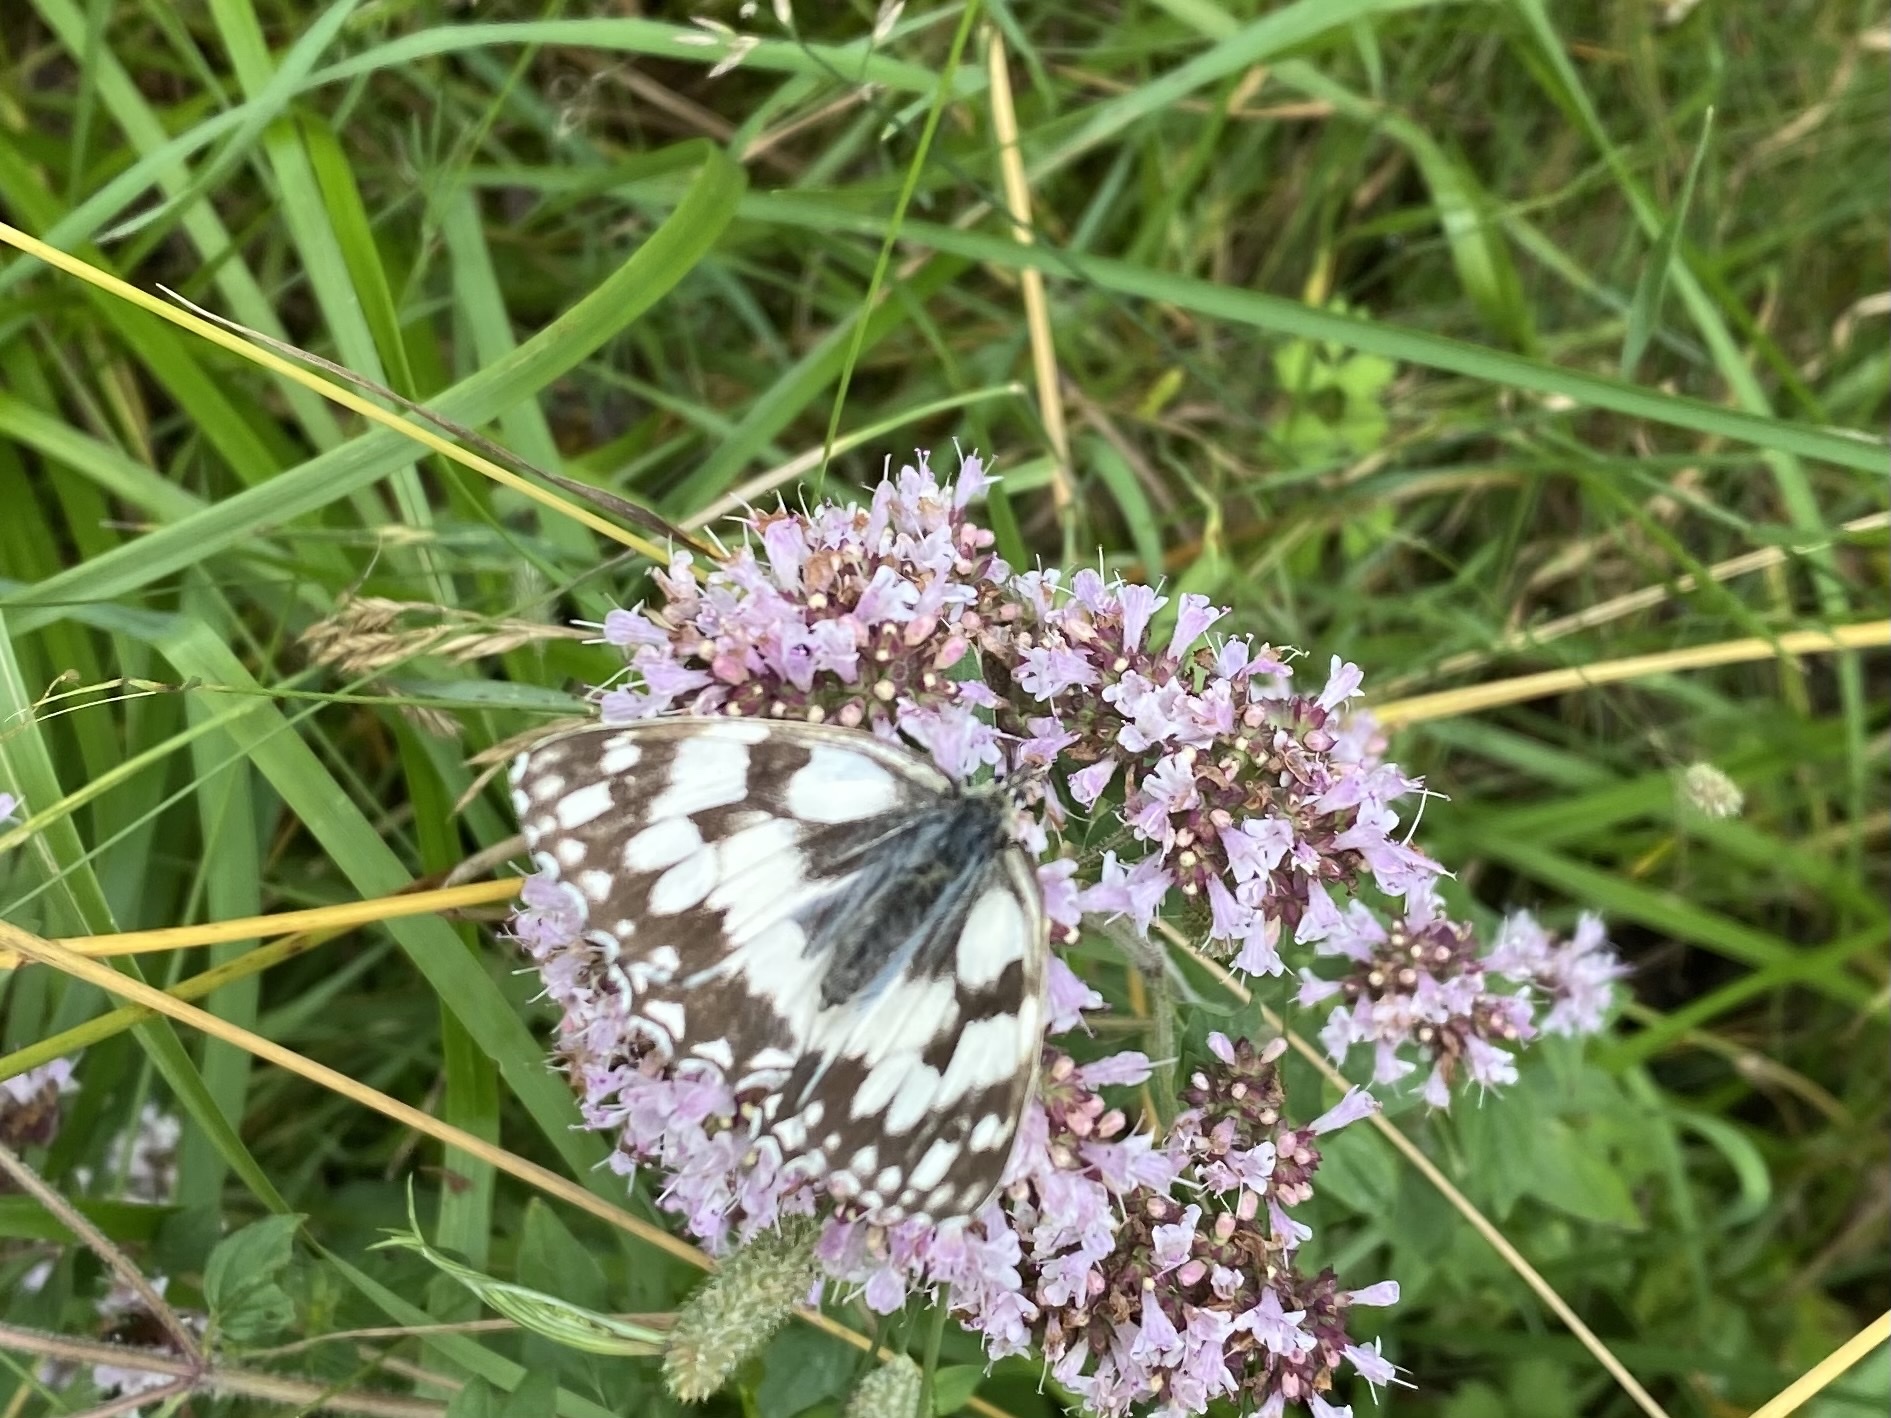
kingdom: Animalia
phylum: Arthropoda
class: Insecta
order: Lepidoptera
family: Nymphalidae
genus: Melanargia
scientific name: Melanargia galathea
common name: Marbled white
